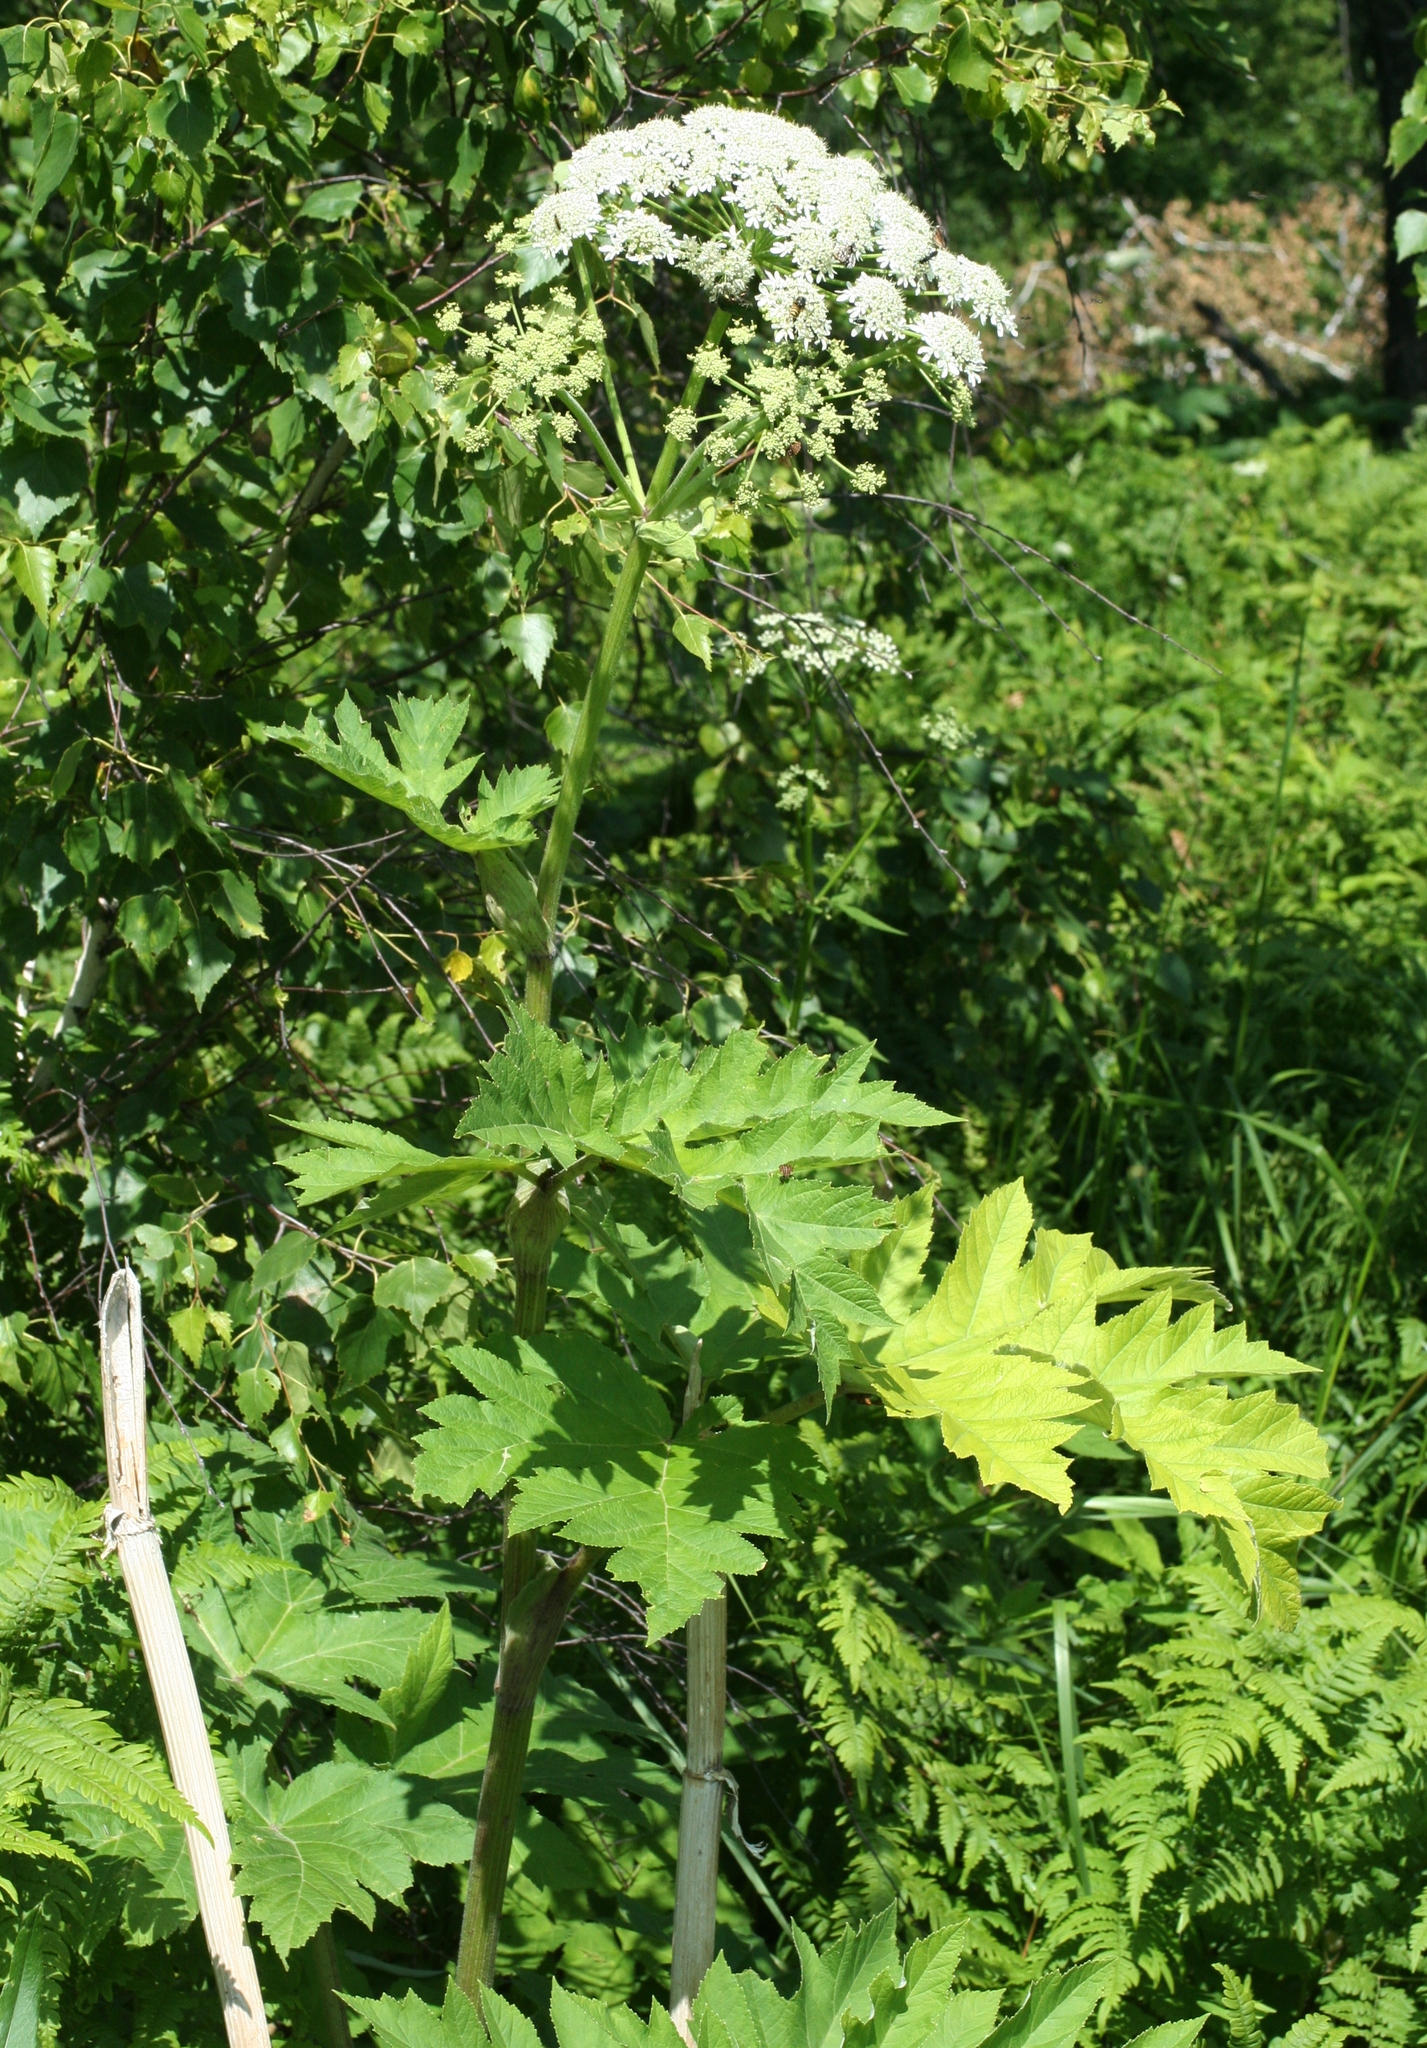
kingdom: Plantae
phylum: Tracheophyta
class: Magnoliopsida
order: Apiales
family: Apiaceae
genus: Heracleum
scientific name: Heracleum dissectum
